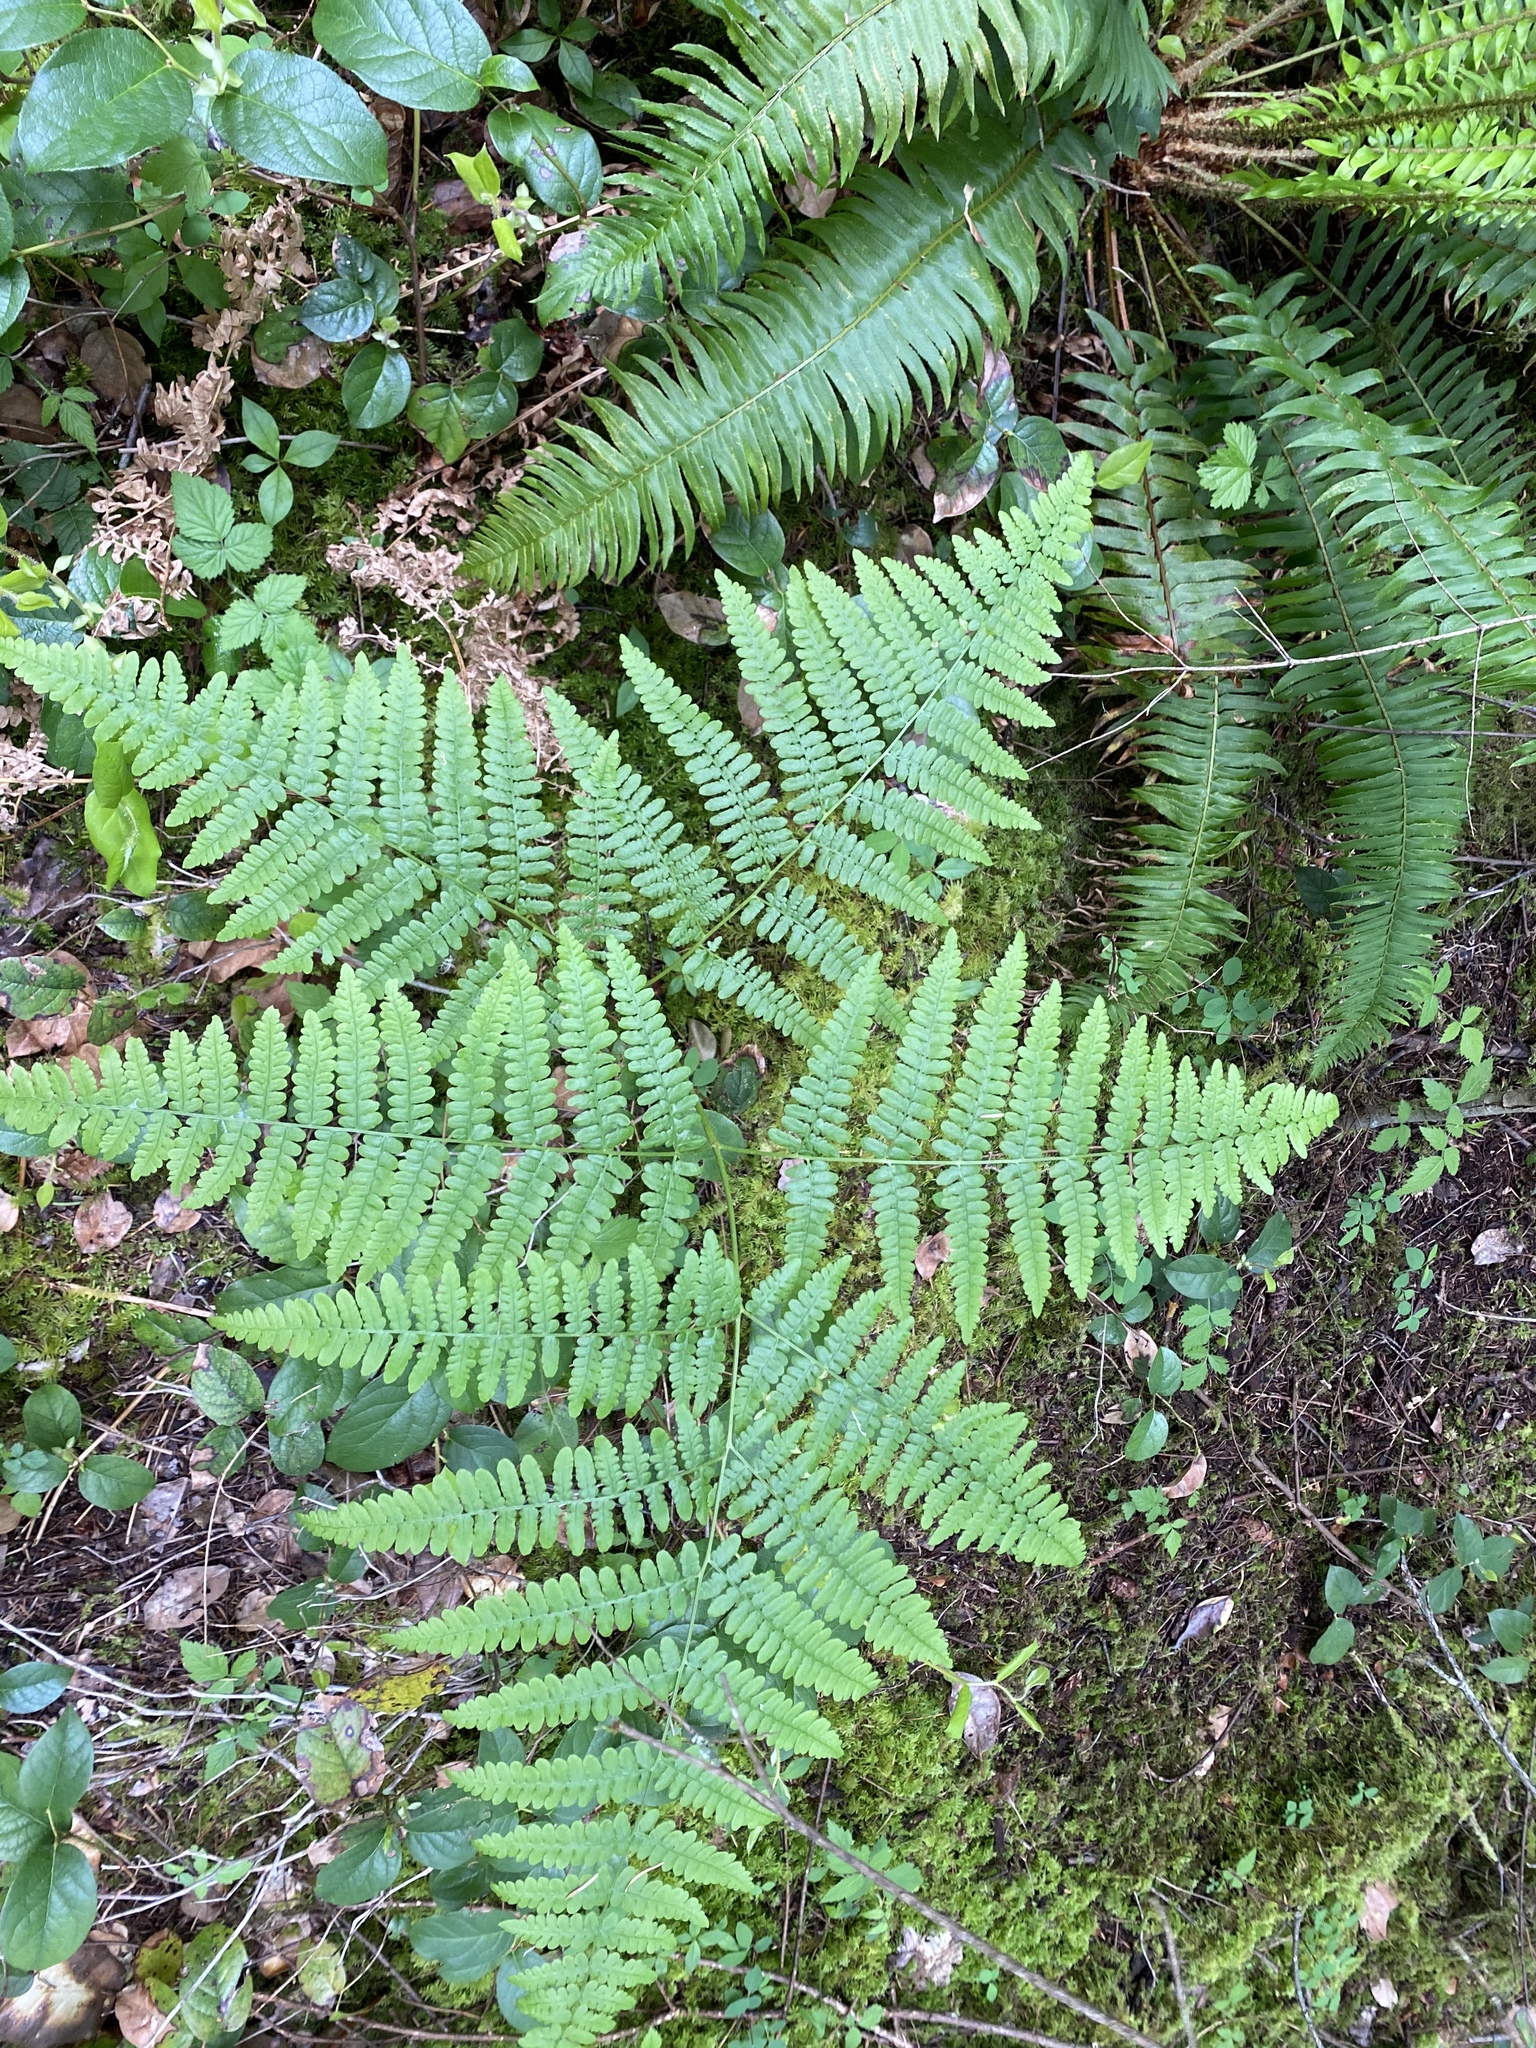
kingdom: Plantae
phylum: Tracheophyta
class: Polypodiopsida
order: Polypodiales
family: Dennstaedtiaceae
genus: Pteridium
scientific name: Pteridium aquilinum
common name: Bracken
